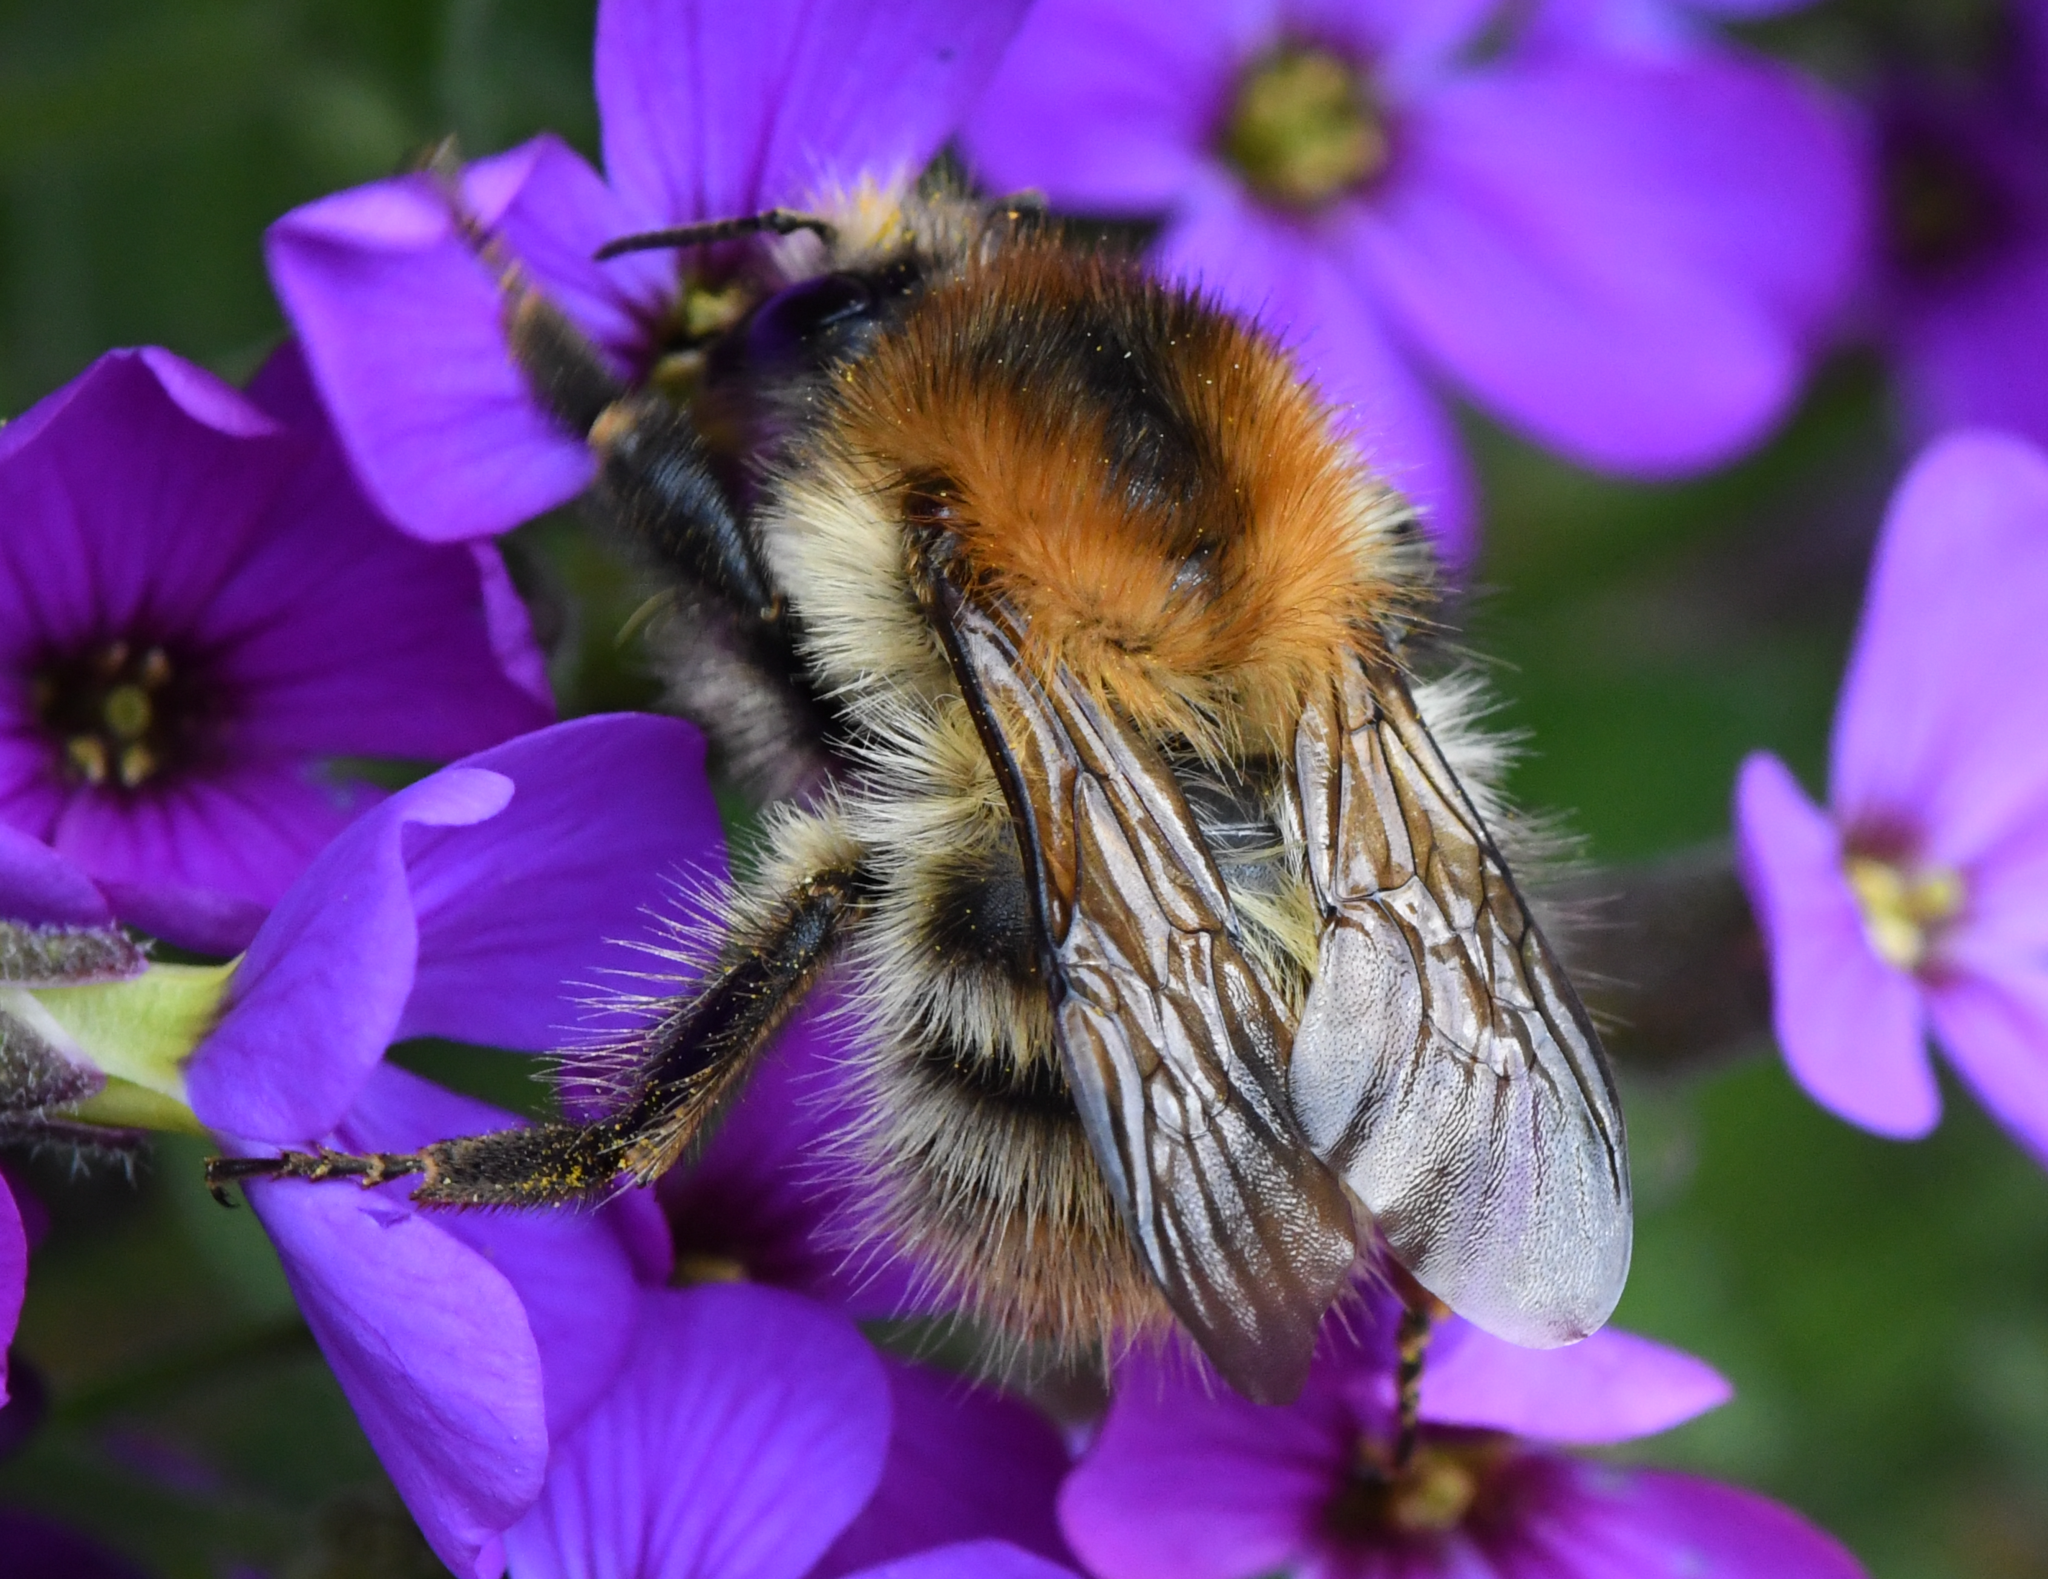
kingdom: Animalia
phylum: Arthropoda
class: Insecta
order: Hymenoptera
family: Apidae
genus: Bombus
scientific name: Bombus pascuorum
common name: Common carder bee
